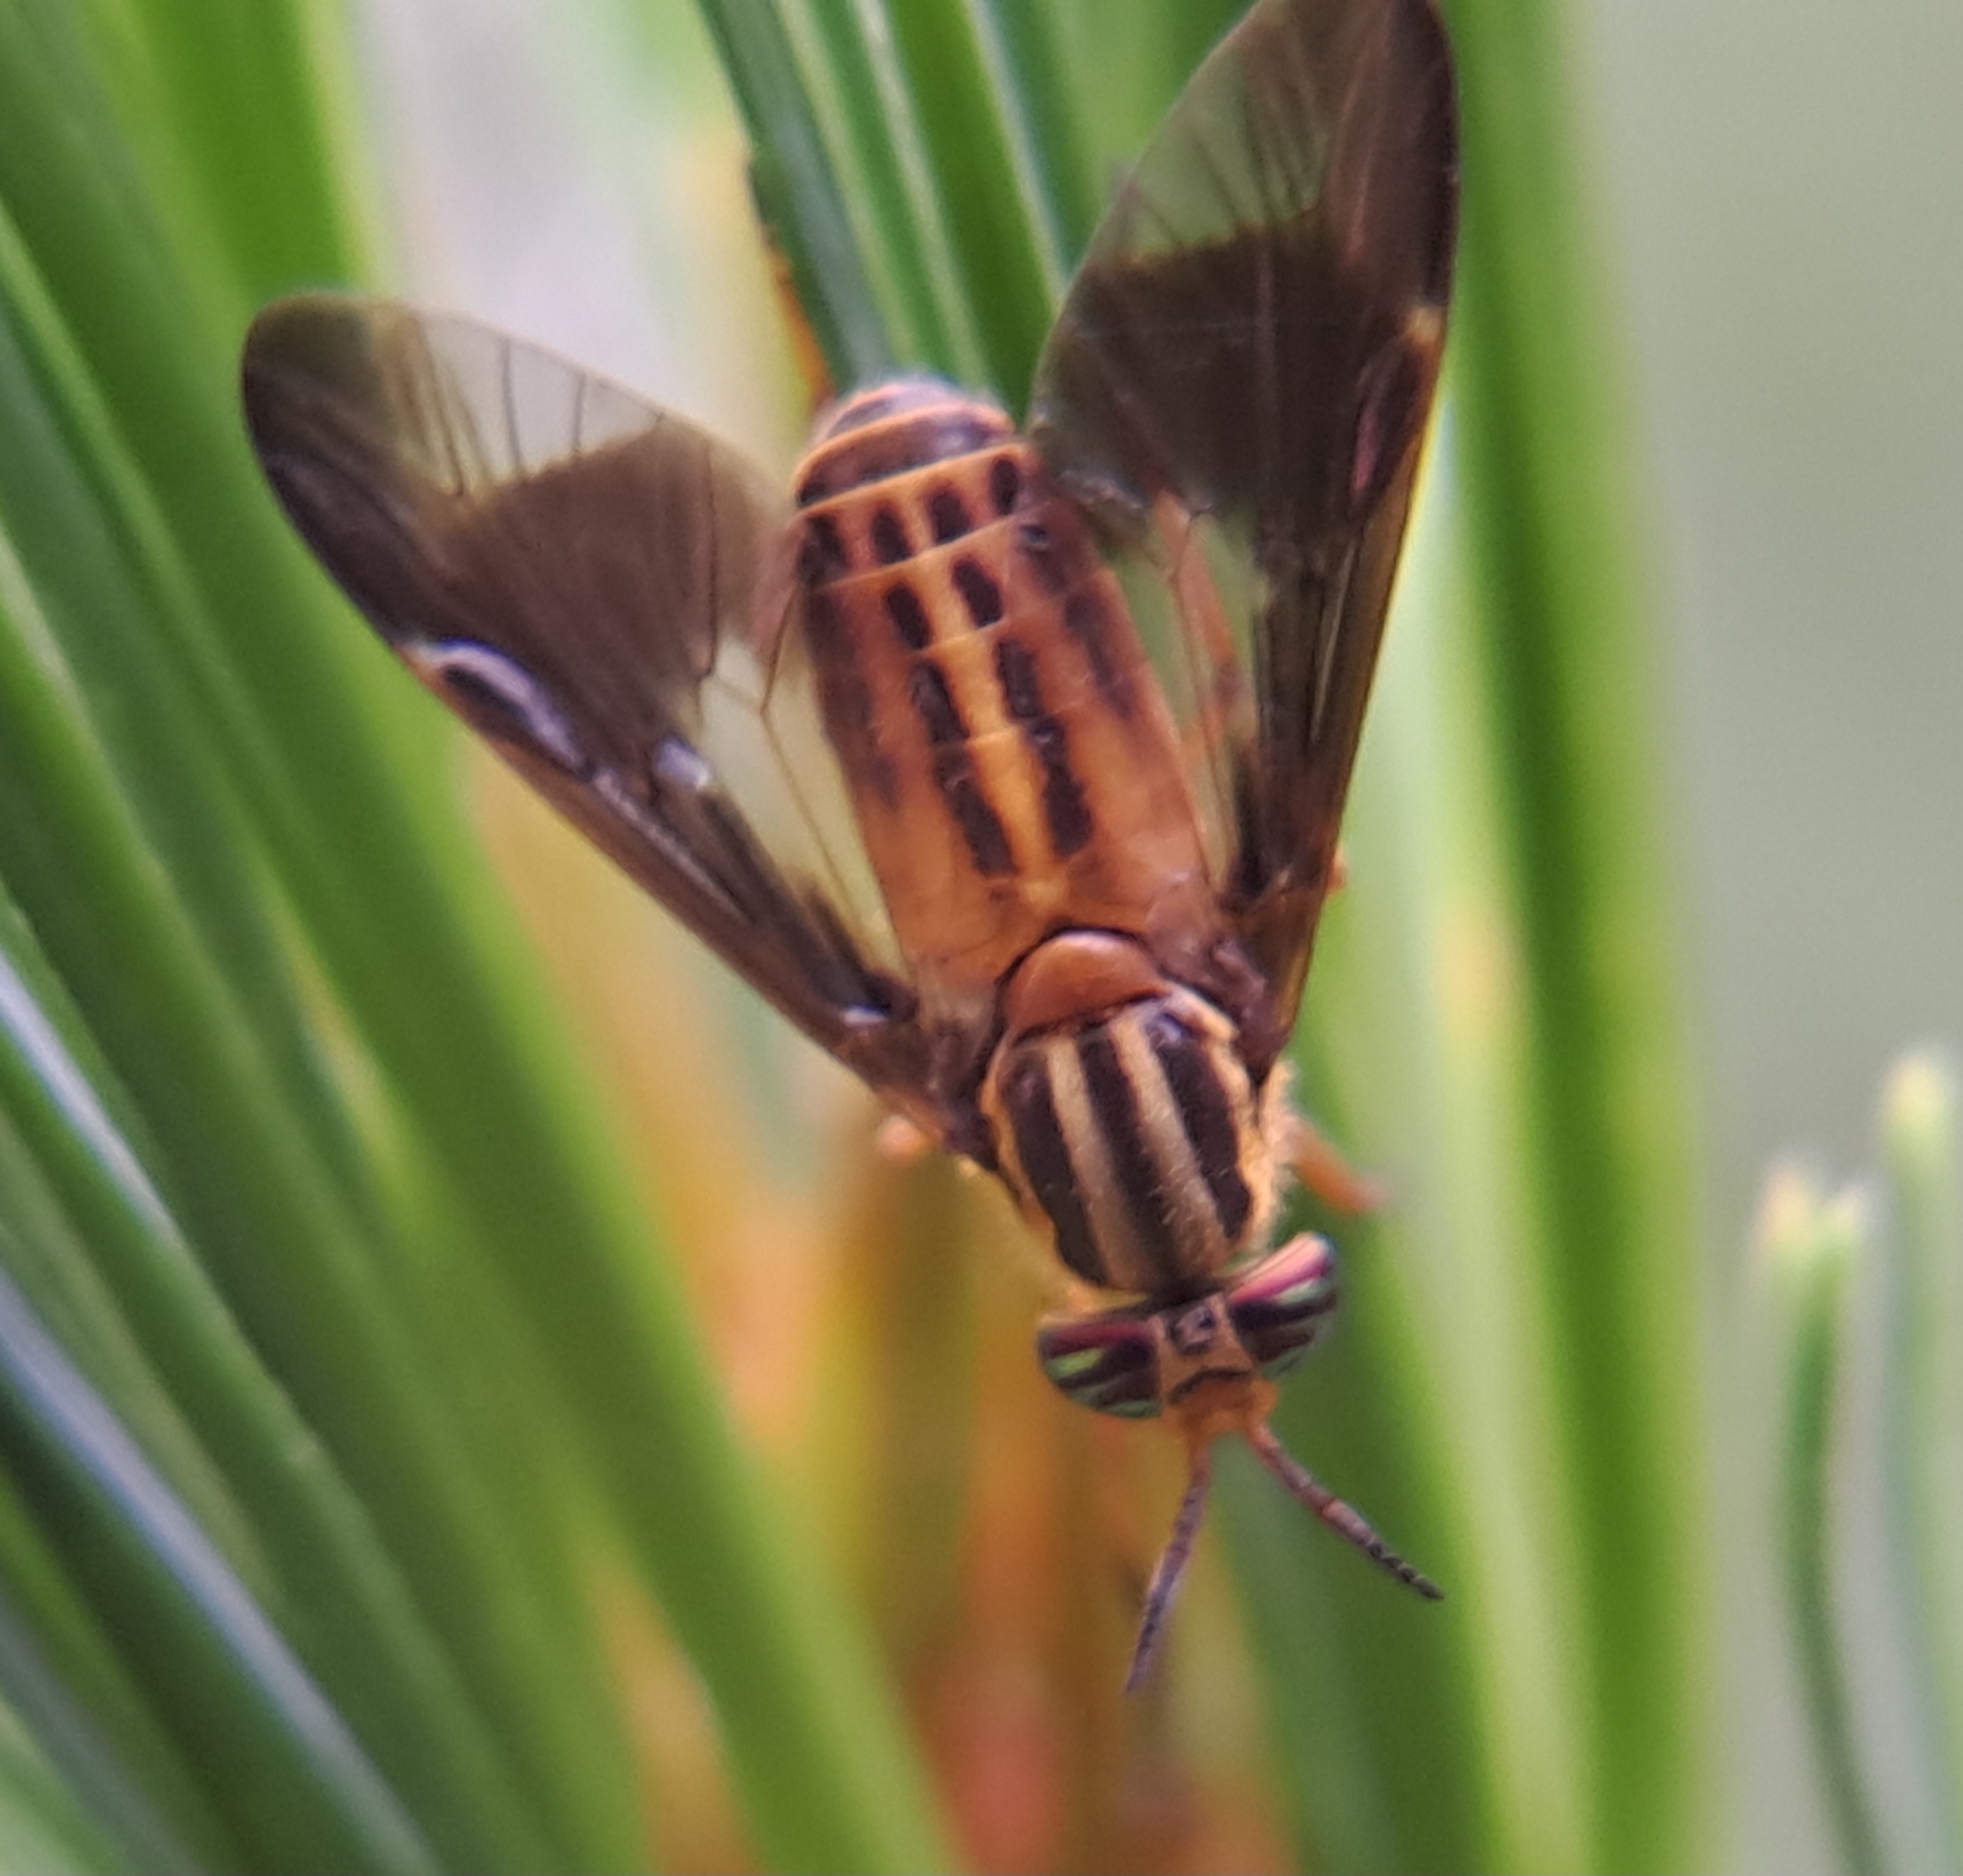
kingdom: Animalia
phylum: Arthropoda
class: Insecta
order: Diptera
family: Tabanidae
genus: Chrysops
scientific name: Chrysops vittatus
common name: Striped deer fly
